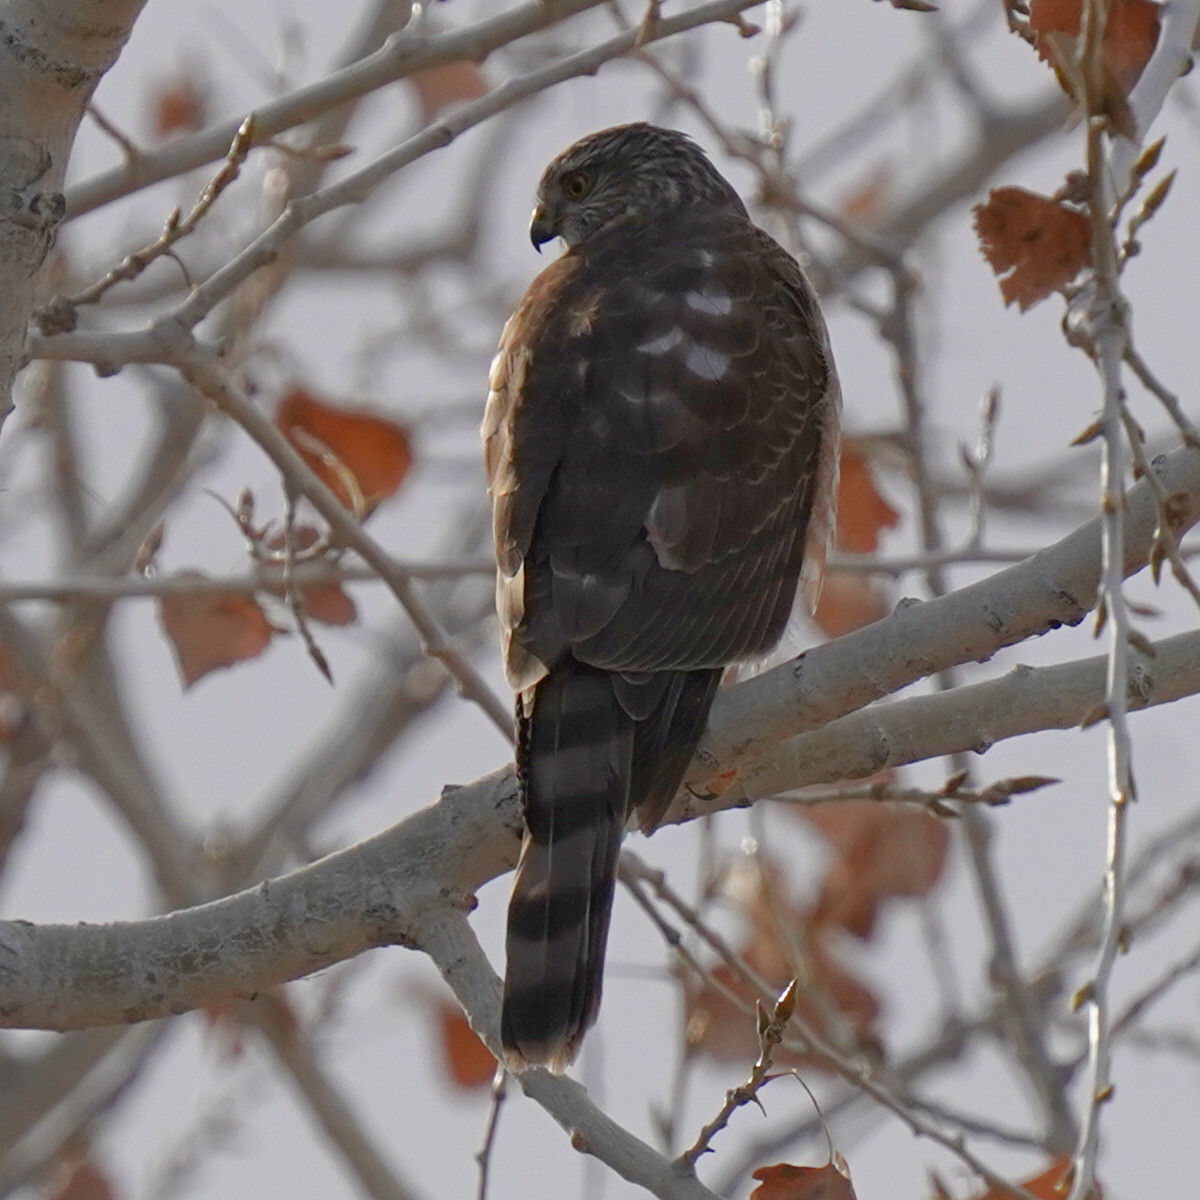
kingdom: Animalia
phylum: Chordata
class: Aves
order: Accipitriformes
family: Accipitridae
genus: Accipiter
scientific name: Accipiter striatus
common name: Sharp-shinned hawk
